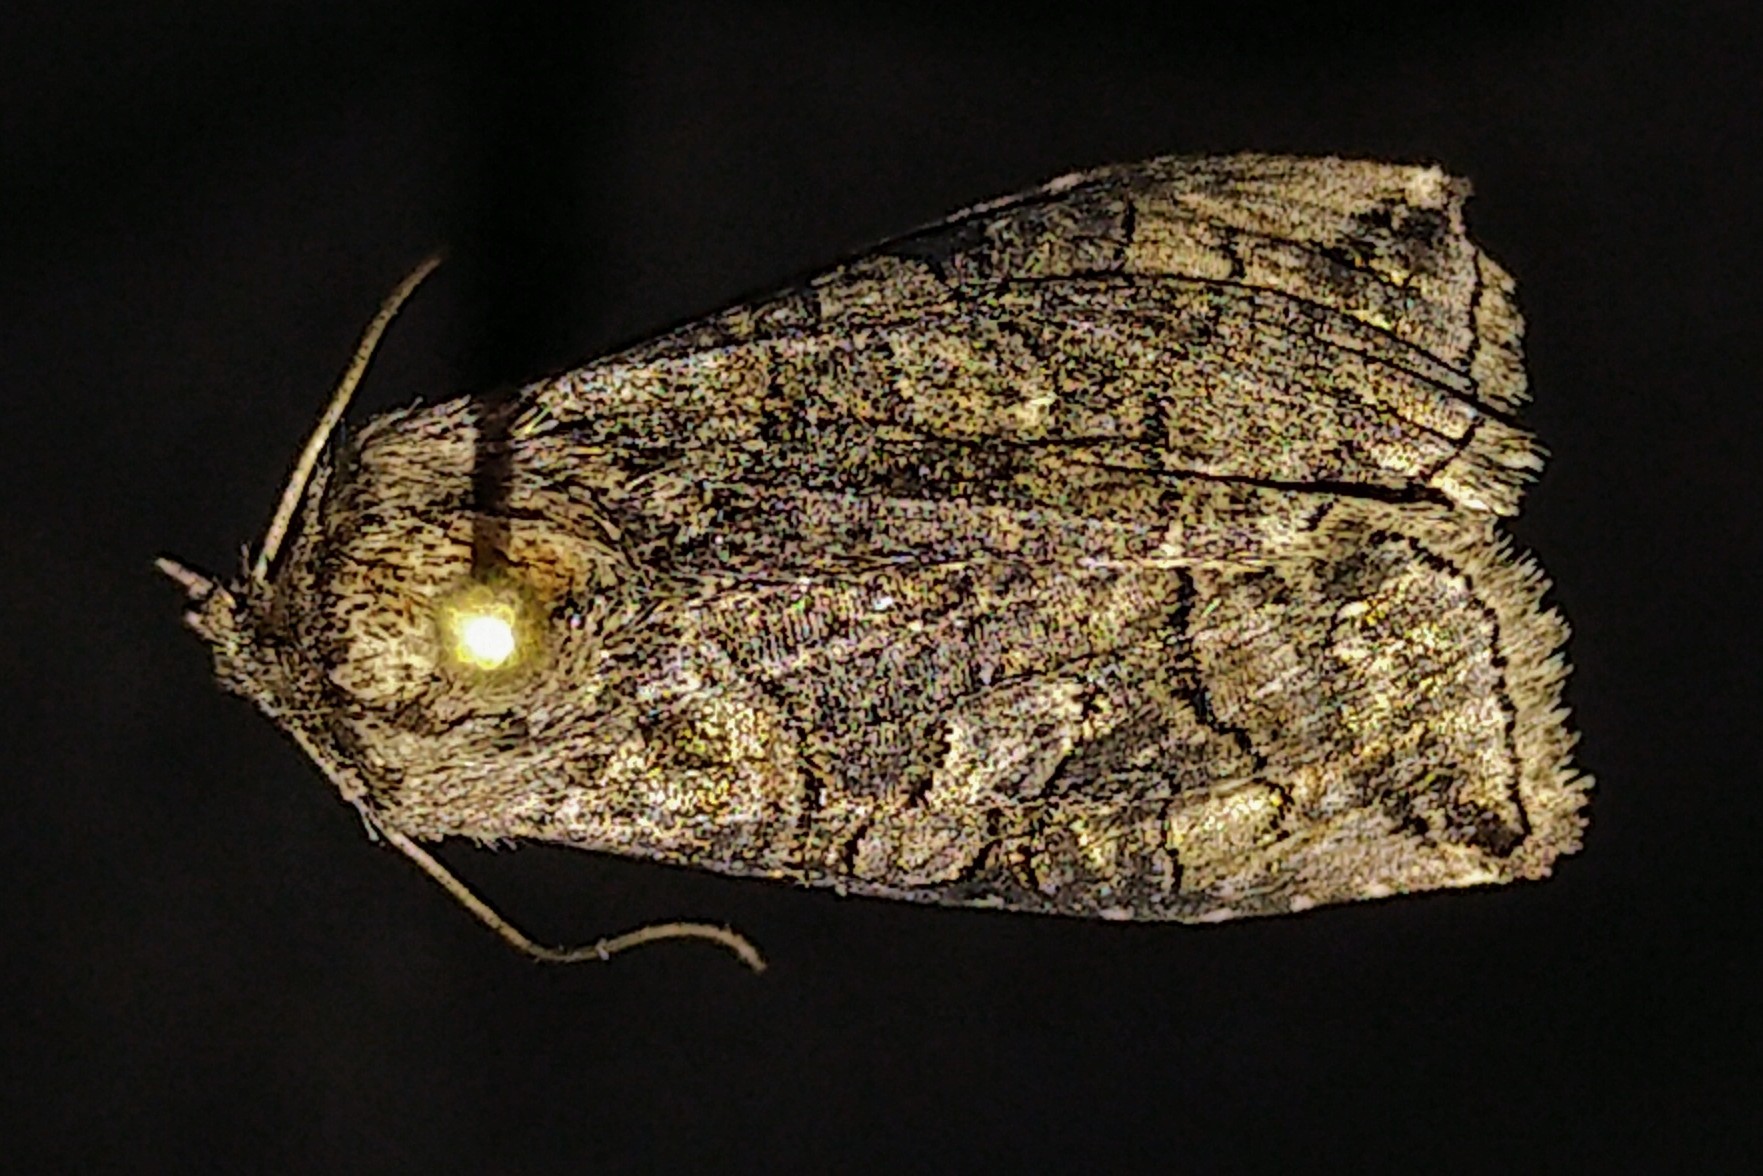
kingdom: Animalia
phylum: Arthropoda
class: Insecta
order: Lepidoptera
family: Noctuidae
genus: Abrostola
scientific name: Abrostola urentis
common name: Spectacled nettle moth
